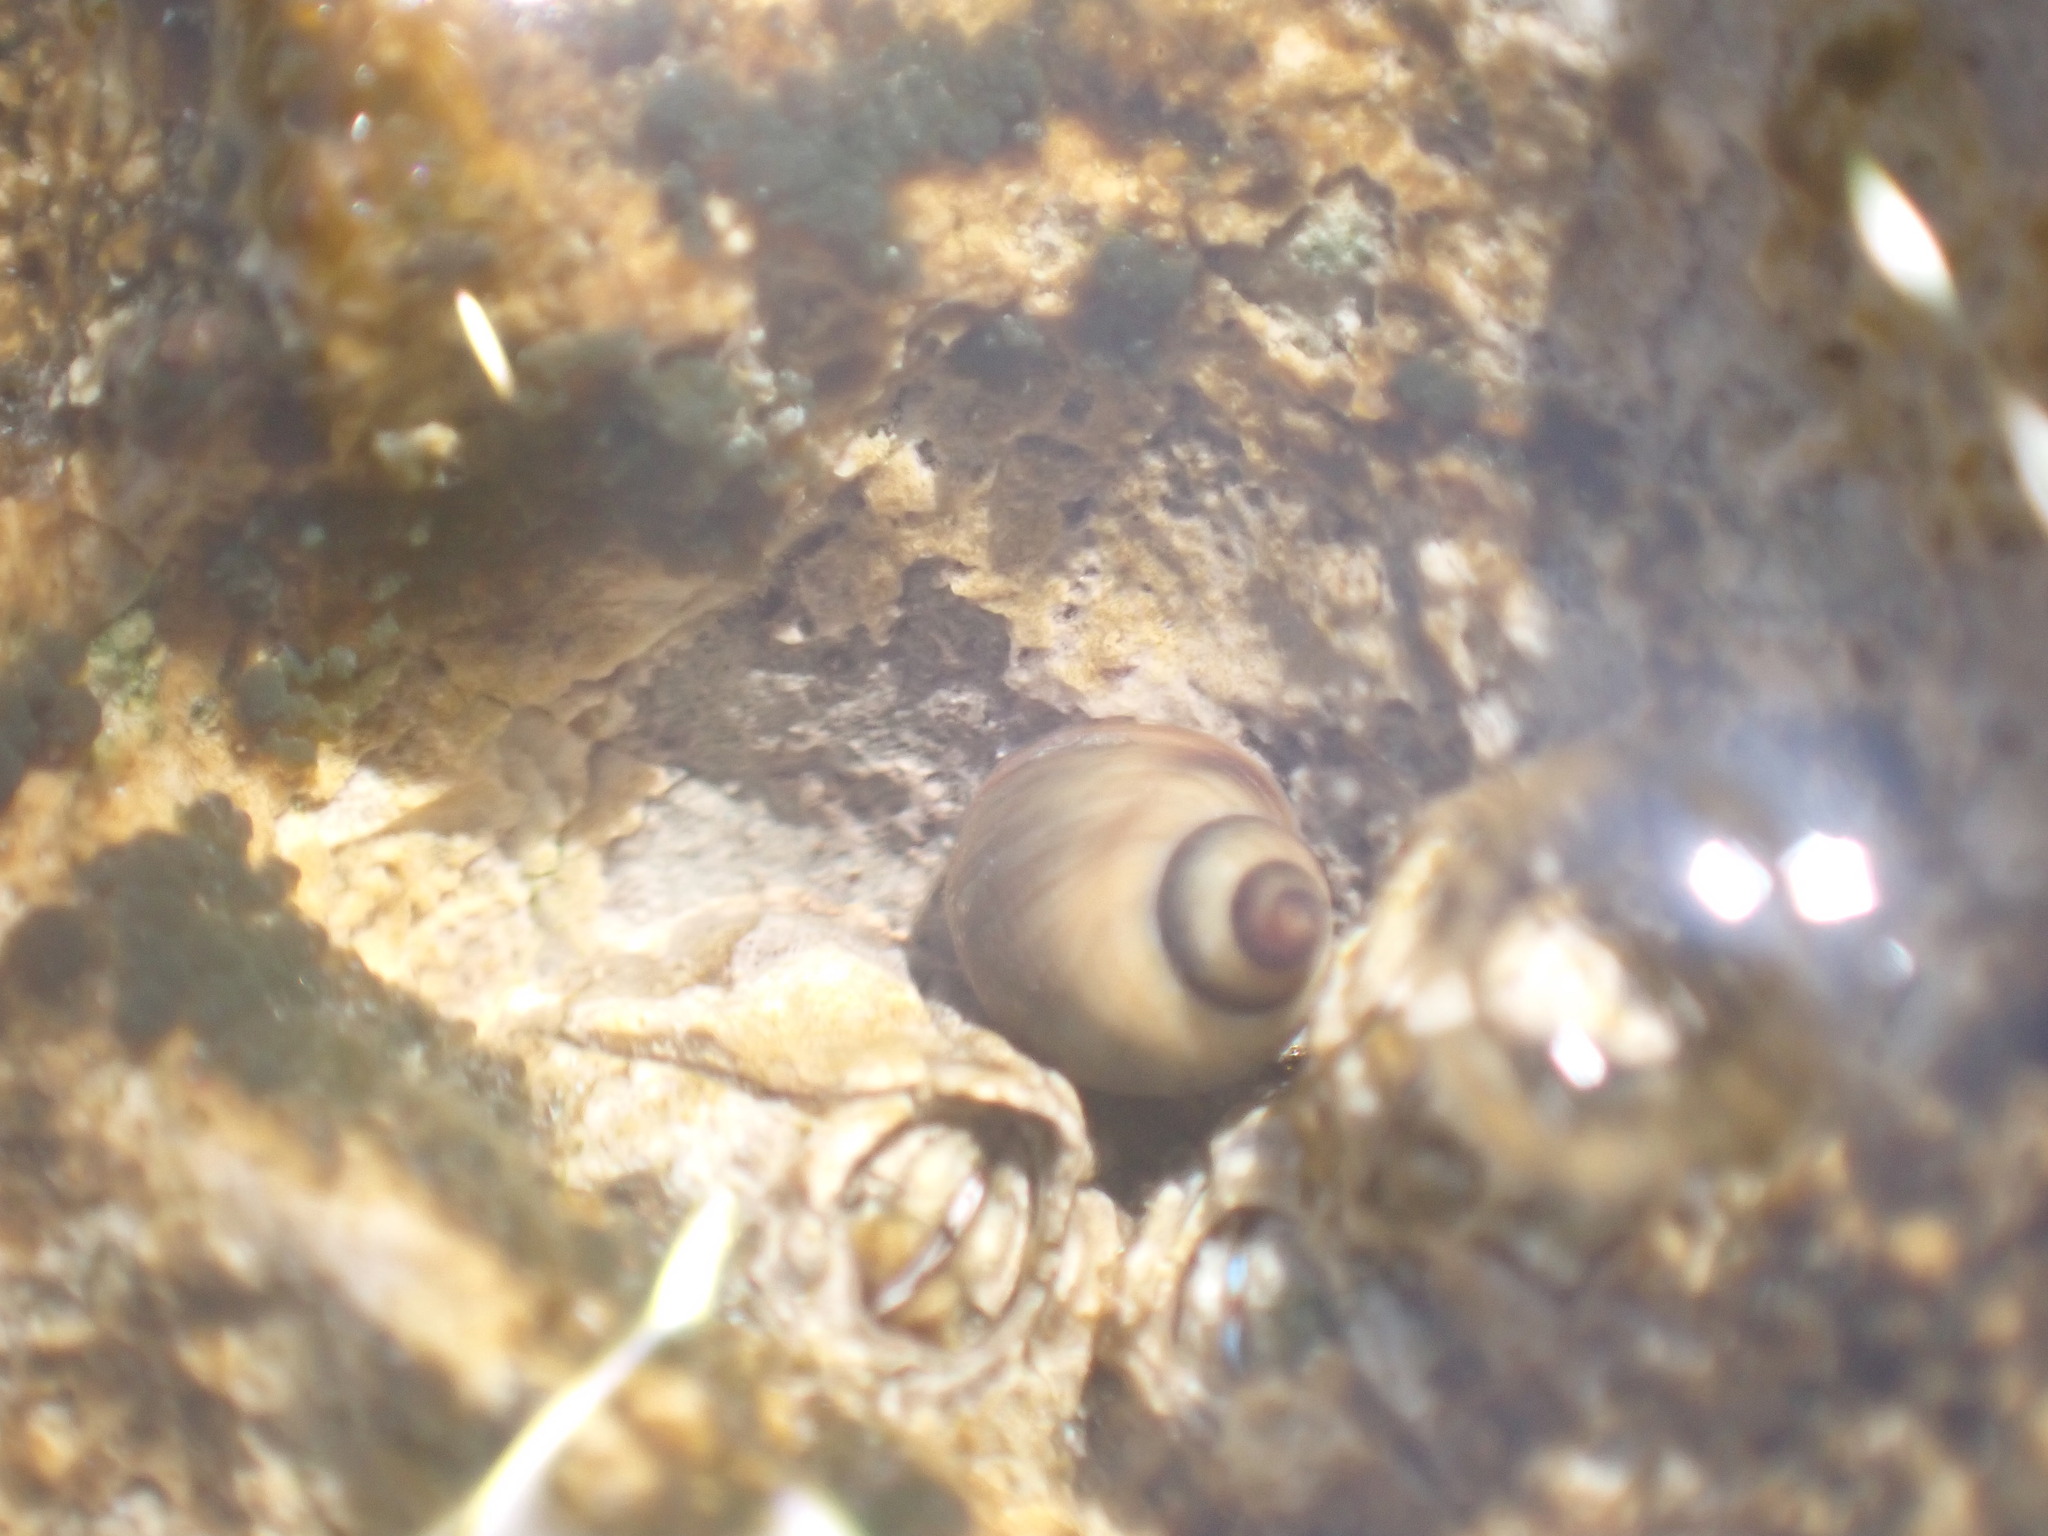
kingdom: Animalia
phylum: Mollusca
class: Gastropoda
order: Littorinimorpha
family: Littorinidae
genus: Melarhaphe
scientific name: Melarhaphe neritoides
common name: Small periwinkle
